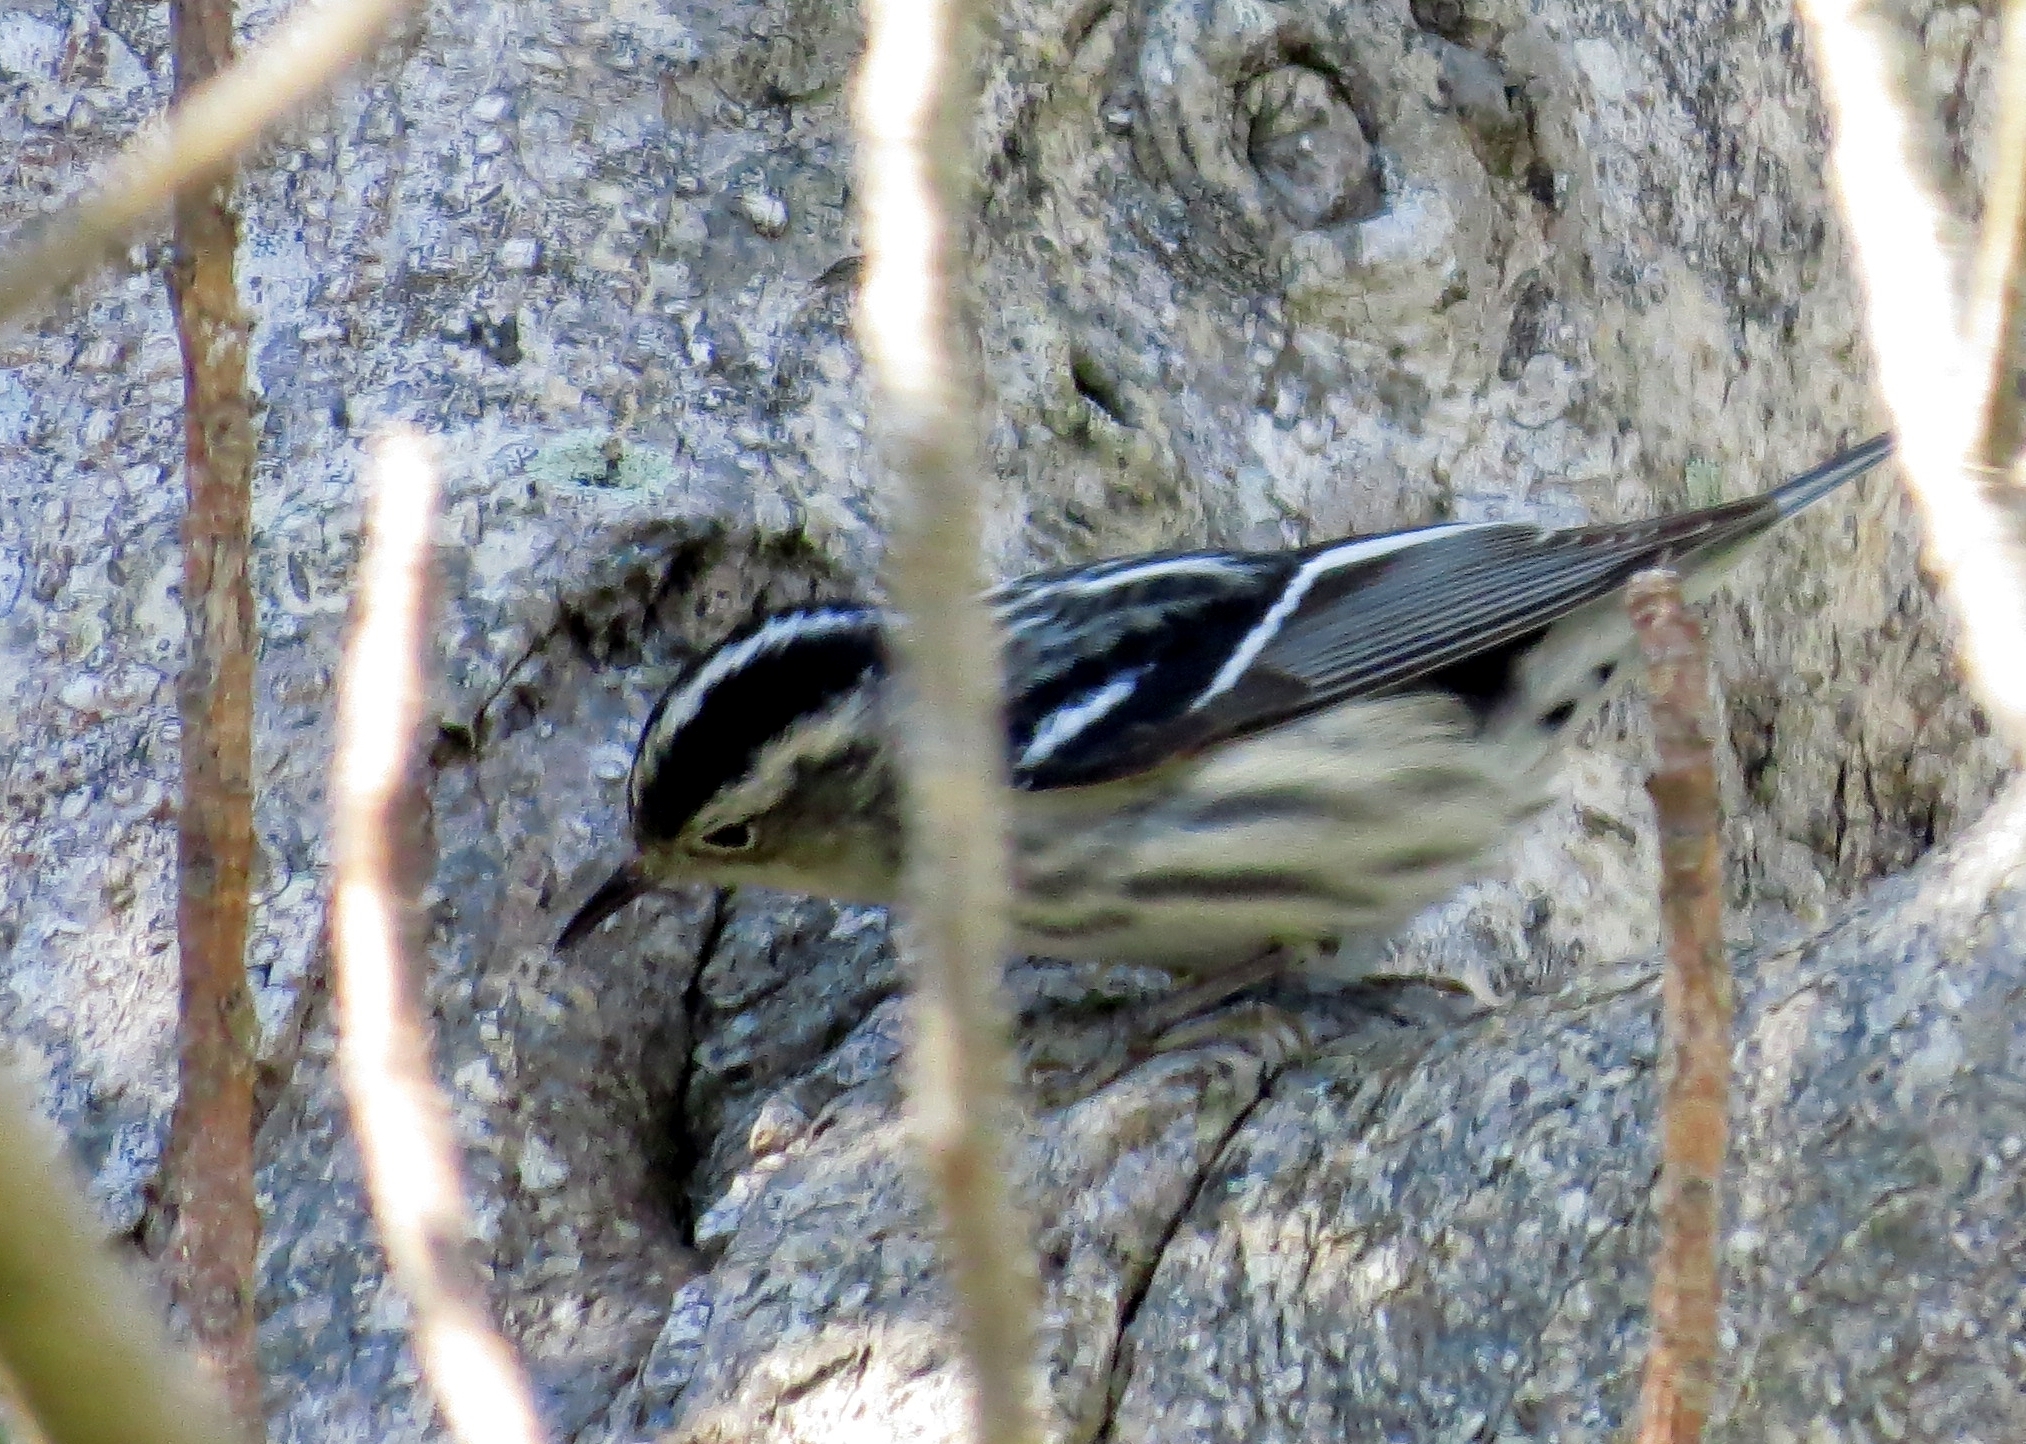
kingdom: Animalia
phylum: Chordata
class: Aves
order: Passeriformes
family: Parulidae
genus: Mniotilta
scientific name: Mniotilta varia
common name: Black-and-white warbler
